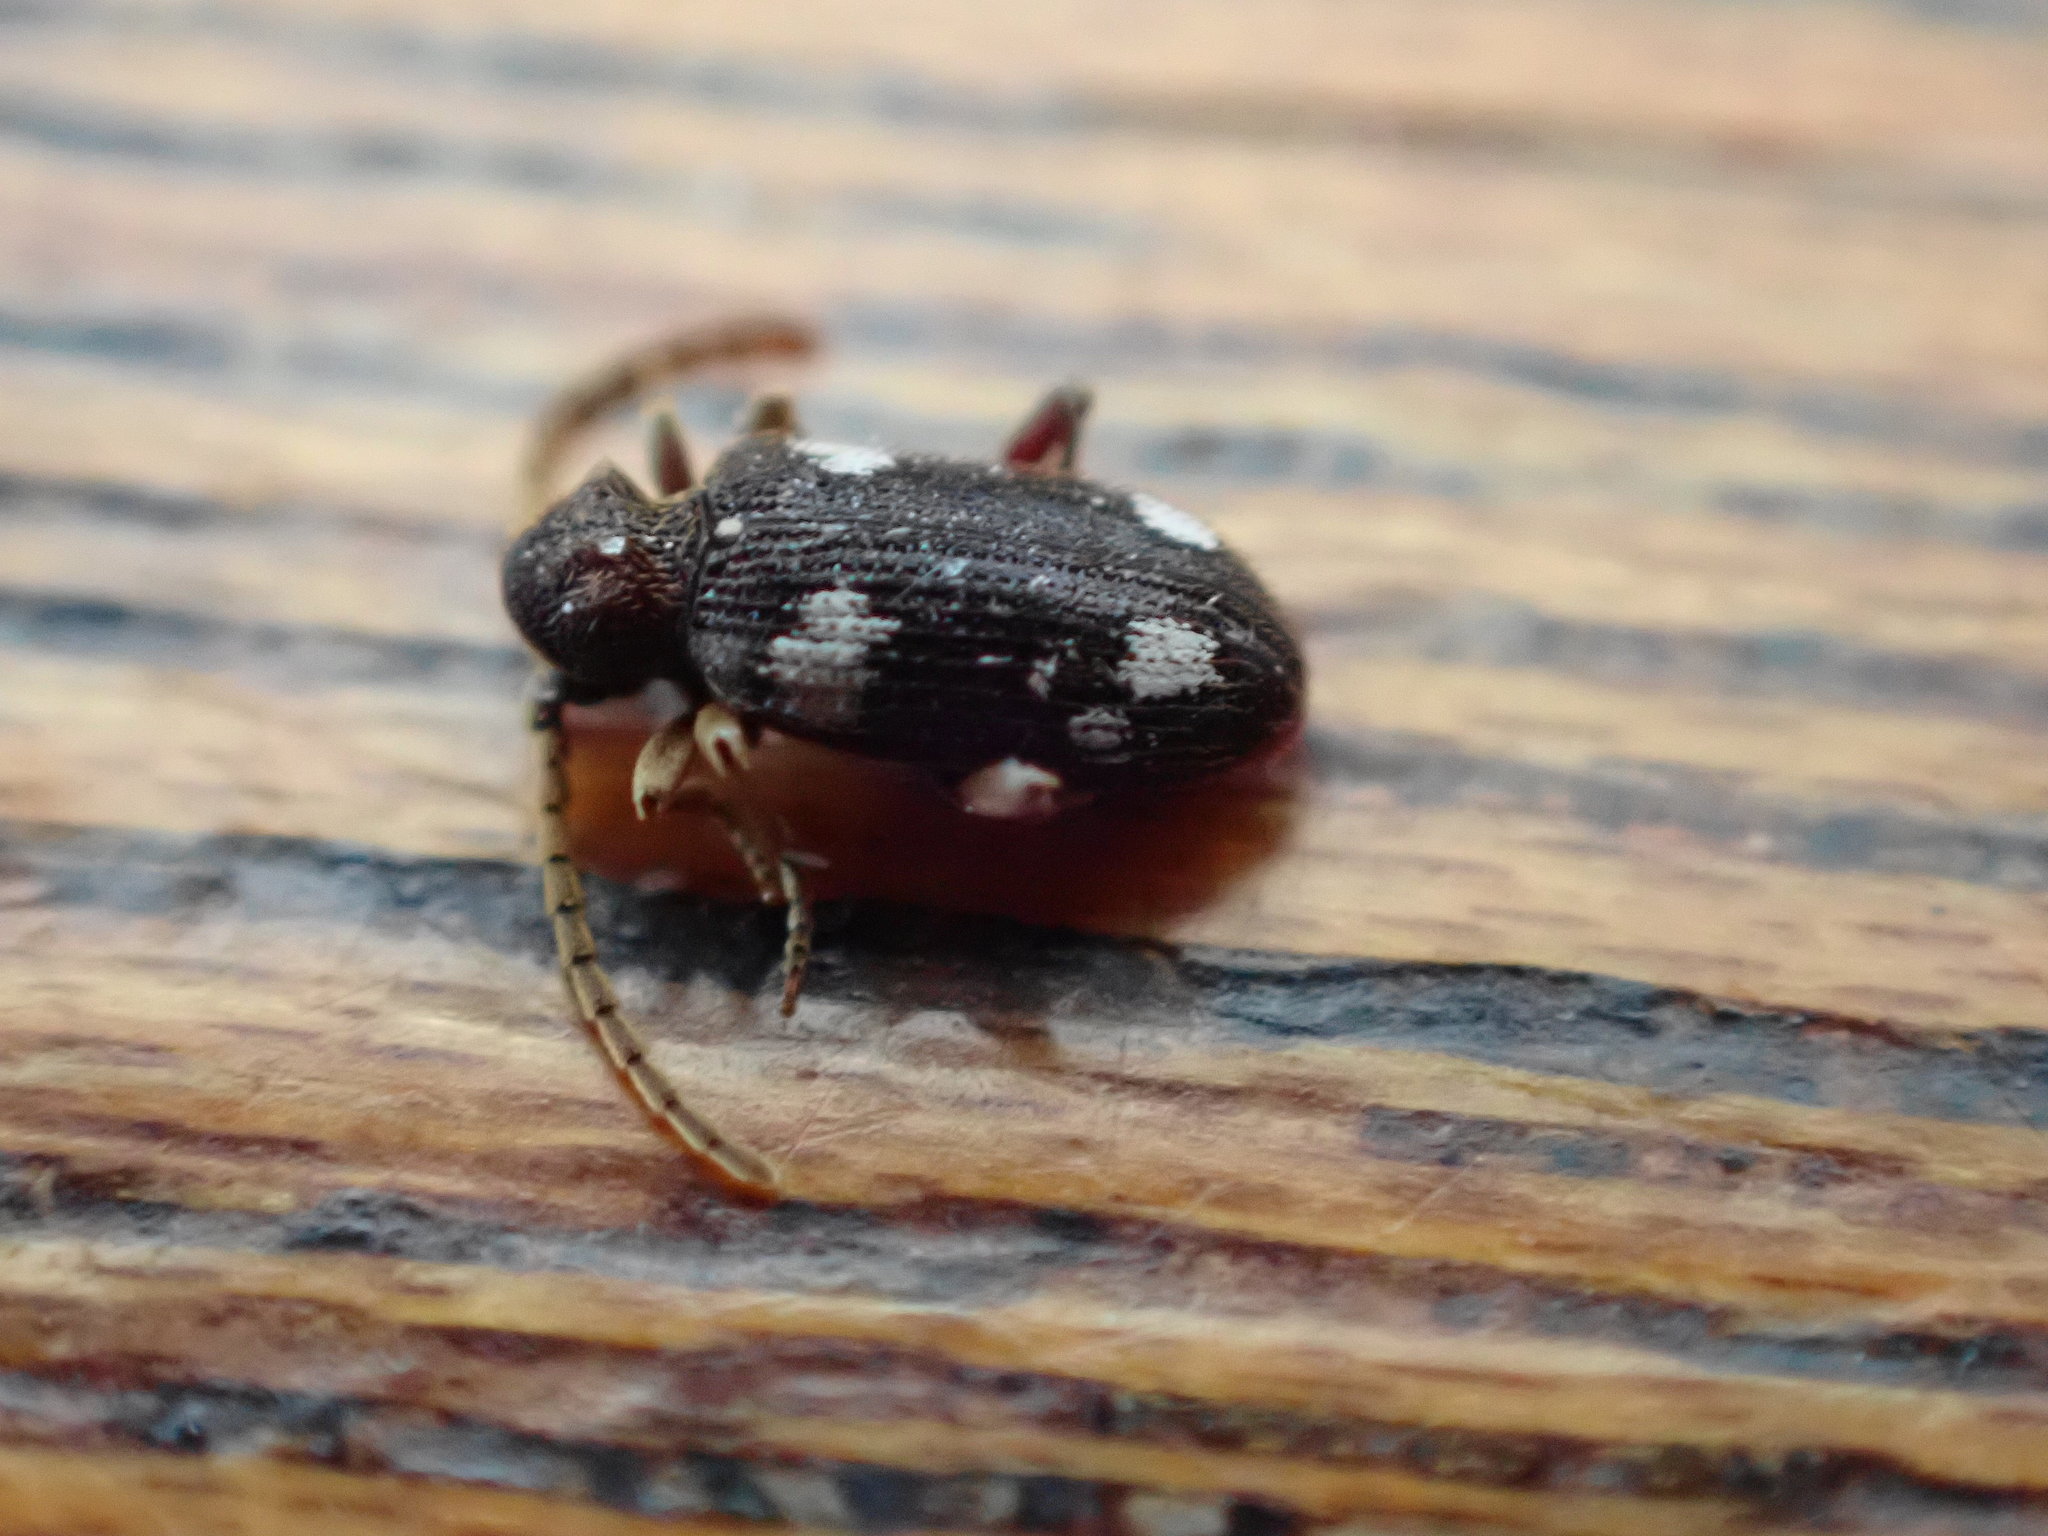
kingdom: Animalia
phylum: Arthropoda
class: Insecta
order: Coleoptera
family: Ptinidae
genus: Ptinus
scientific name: Ptinus sexpunctatus
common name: Six-spotted spider beetle
